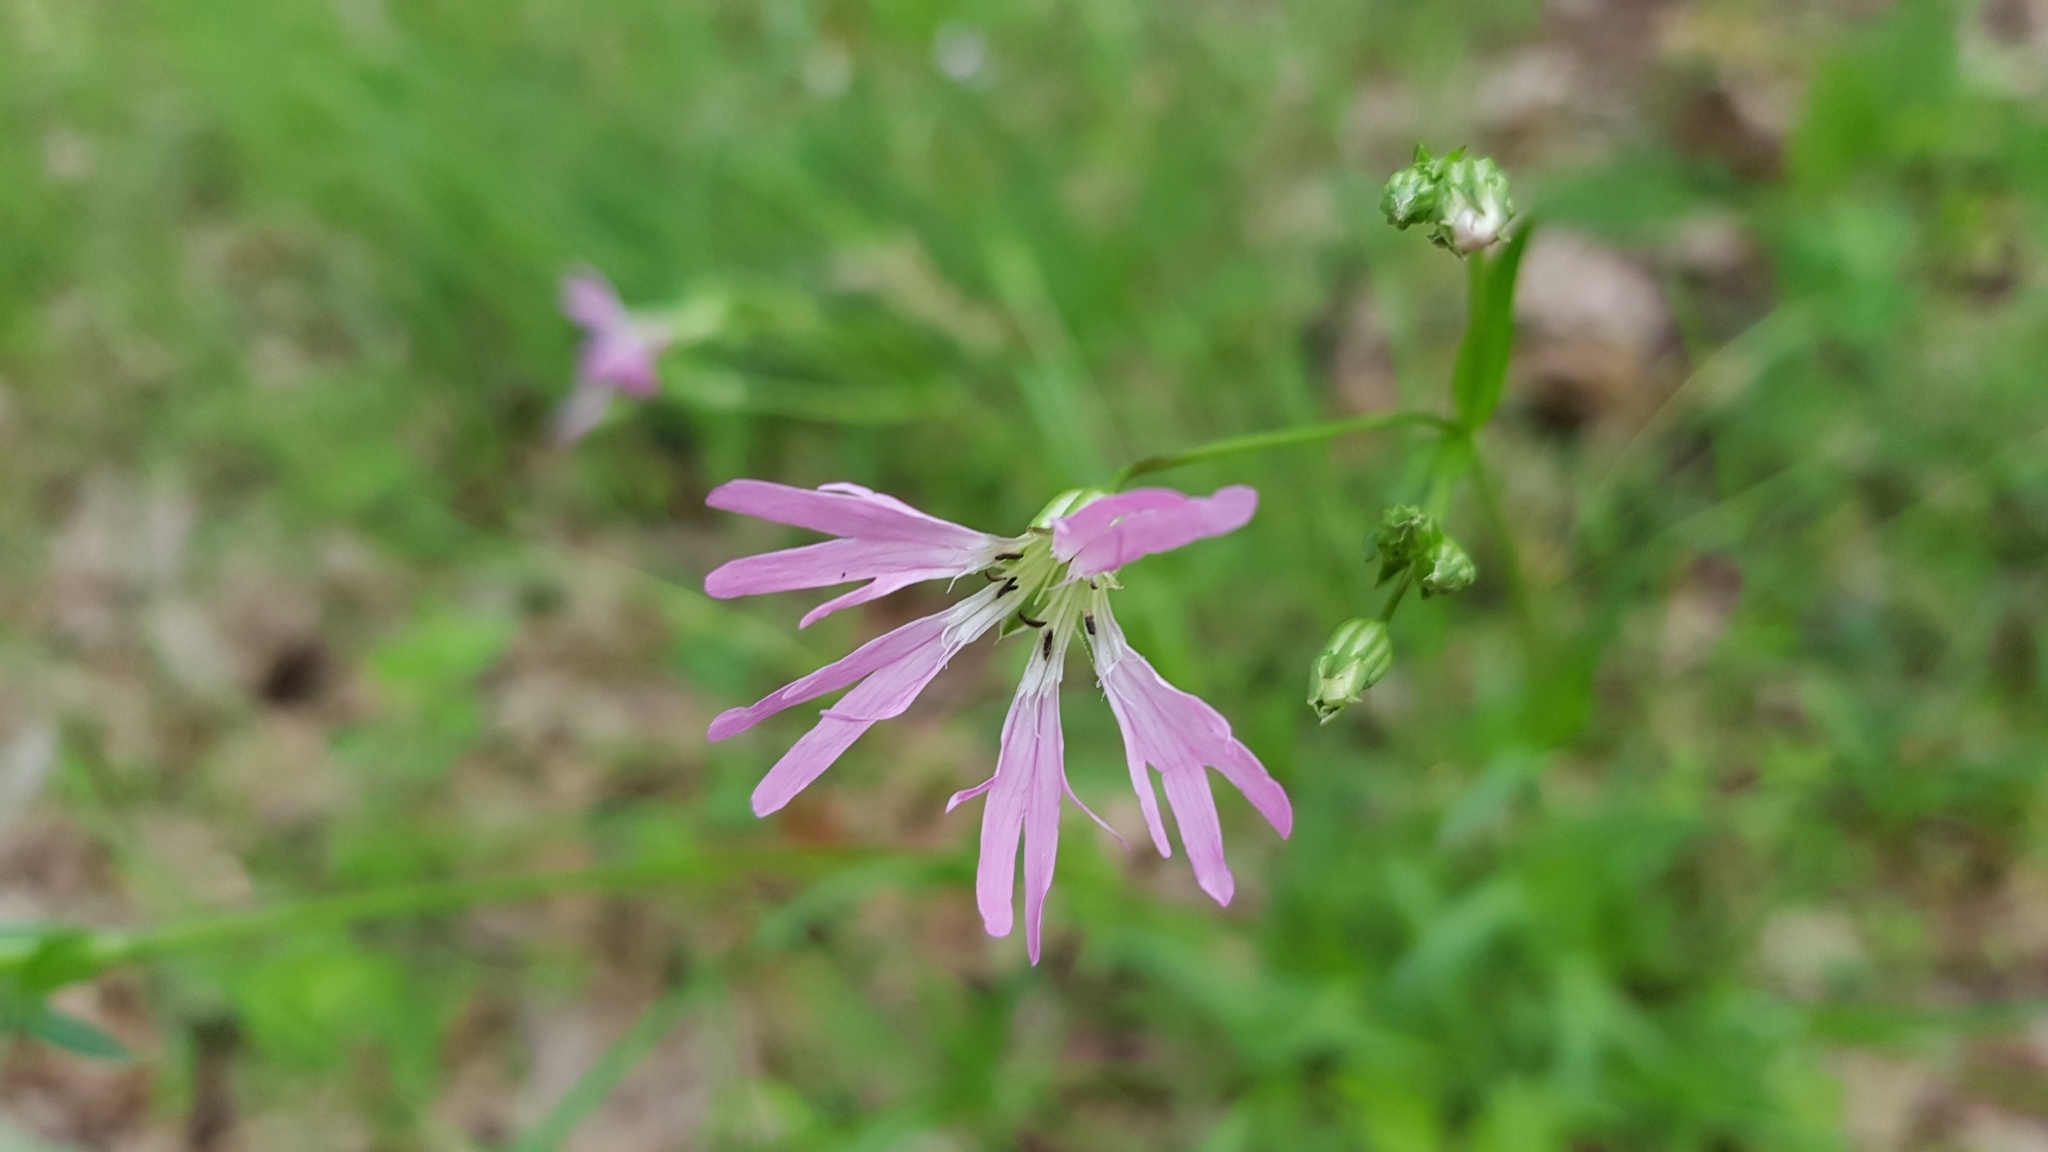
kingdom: Plantae
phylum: Tracheophyta
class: Magnoliopsida
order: Caryophyllales
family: Caryophyllaceae
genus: Silene
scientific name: Silene flos-cuculi
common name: Ragged-robin
